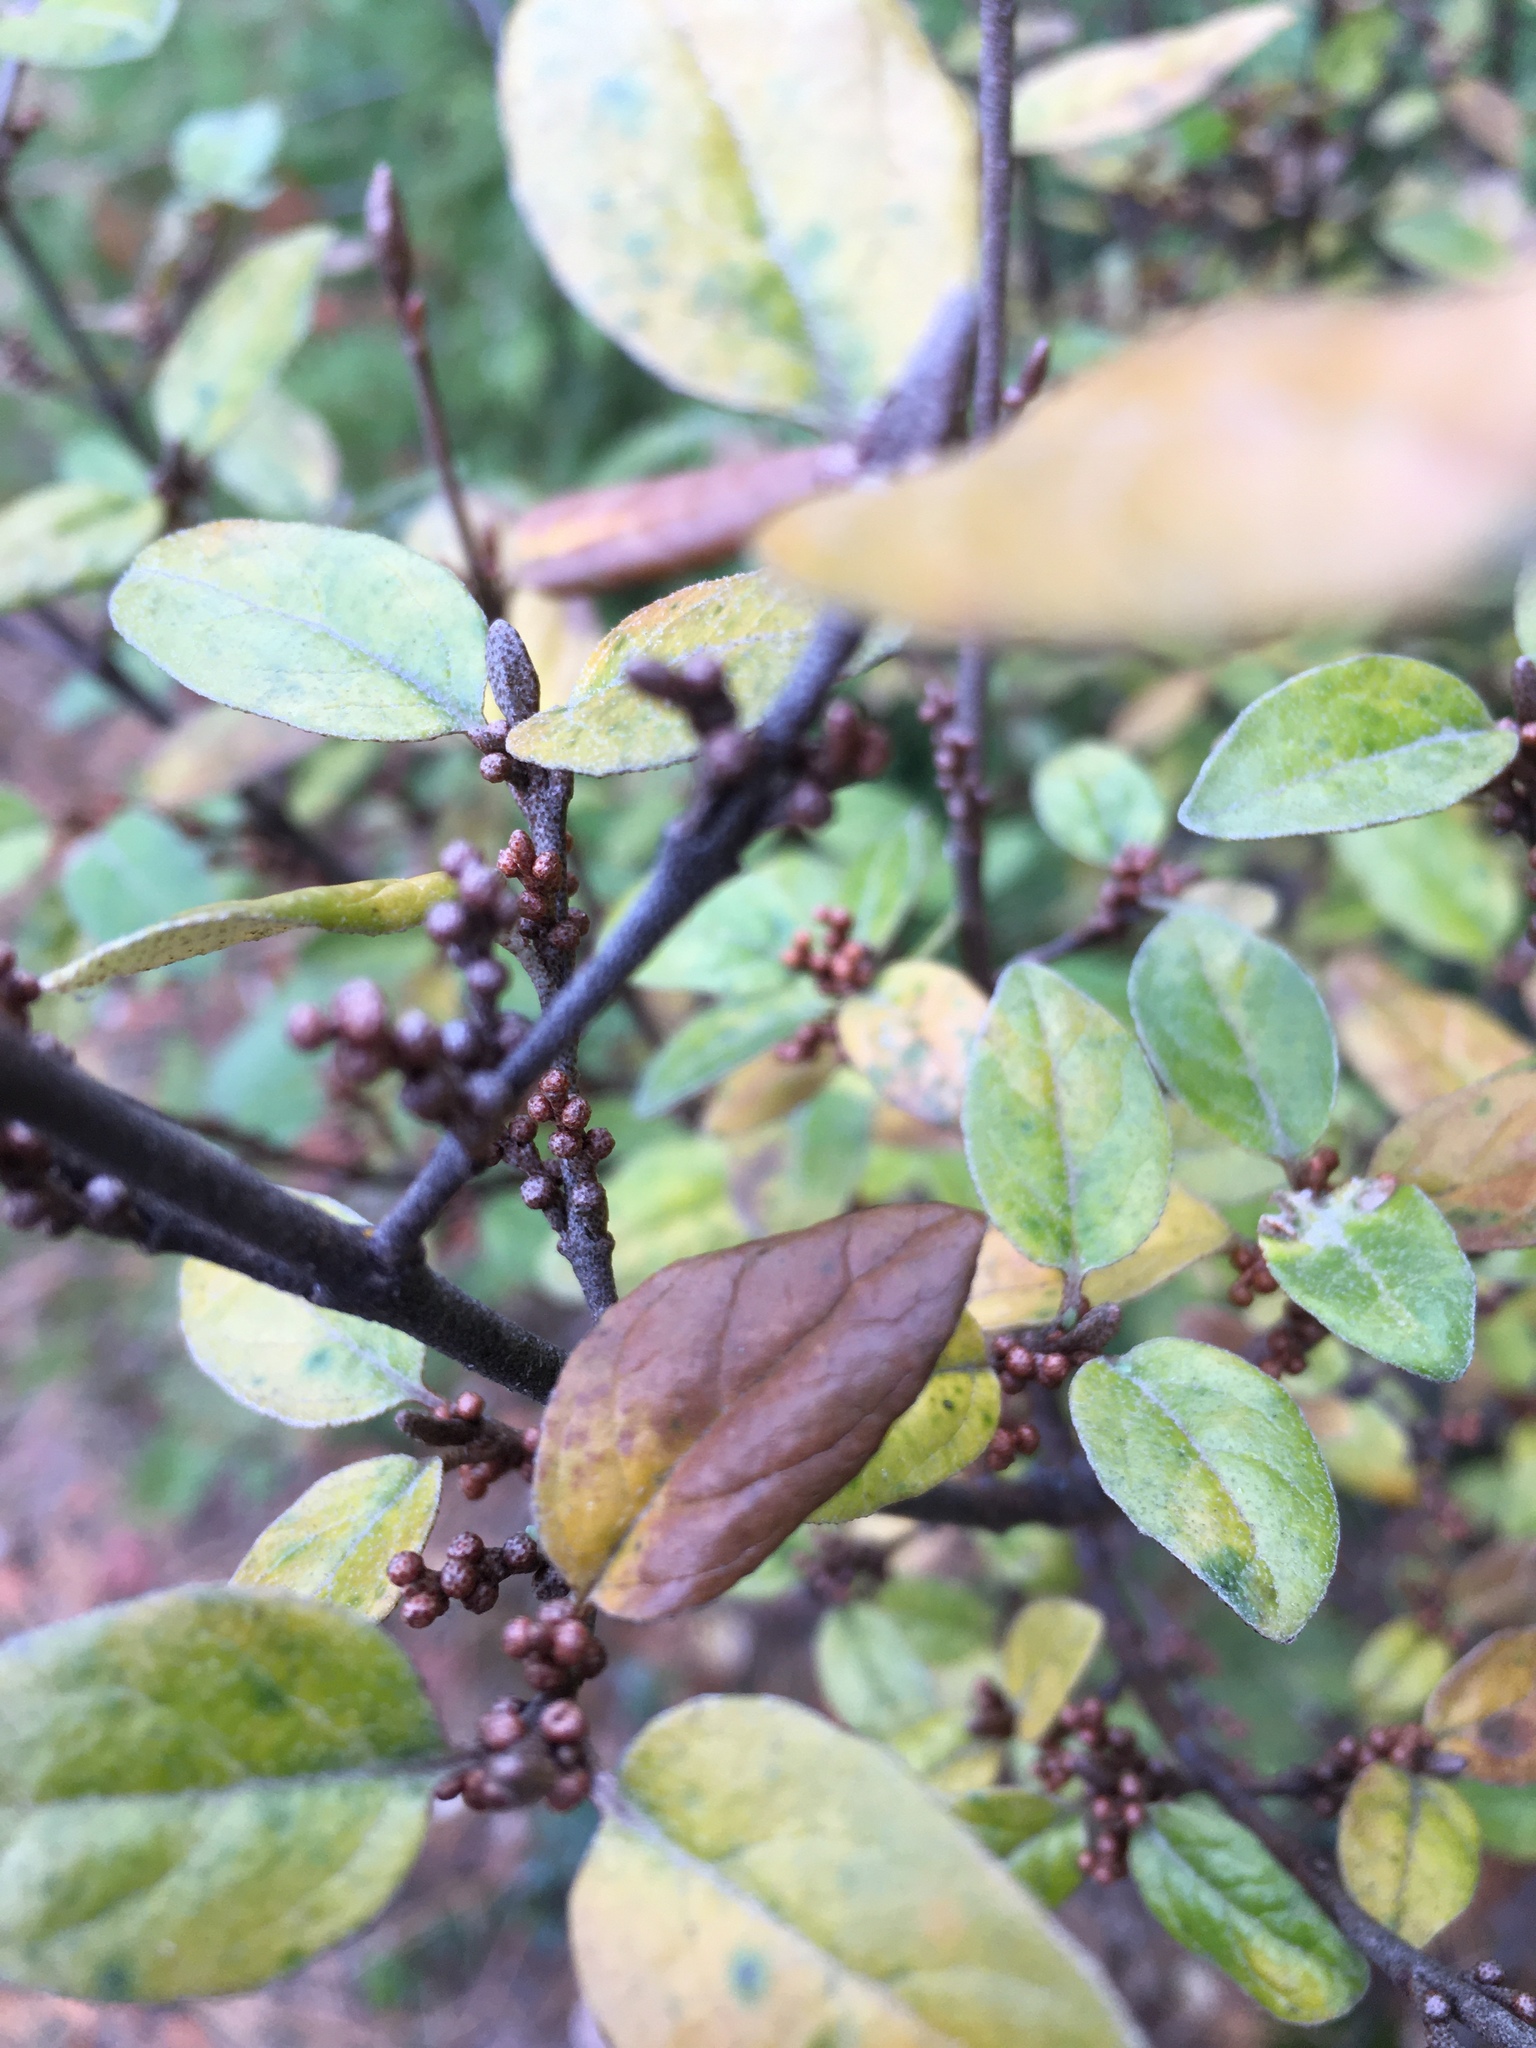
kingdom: Plantae
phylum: Tracheophyta
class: Magnoliopsida
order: Rosales
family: Elaeagnaceae
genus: Shepherdia
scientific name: Shepherdia canadensis
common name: Soapberry
